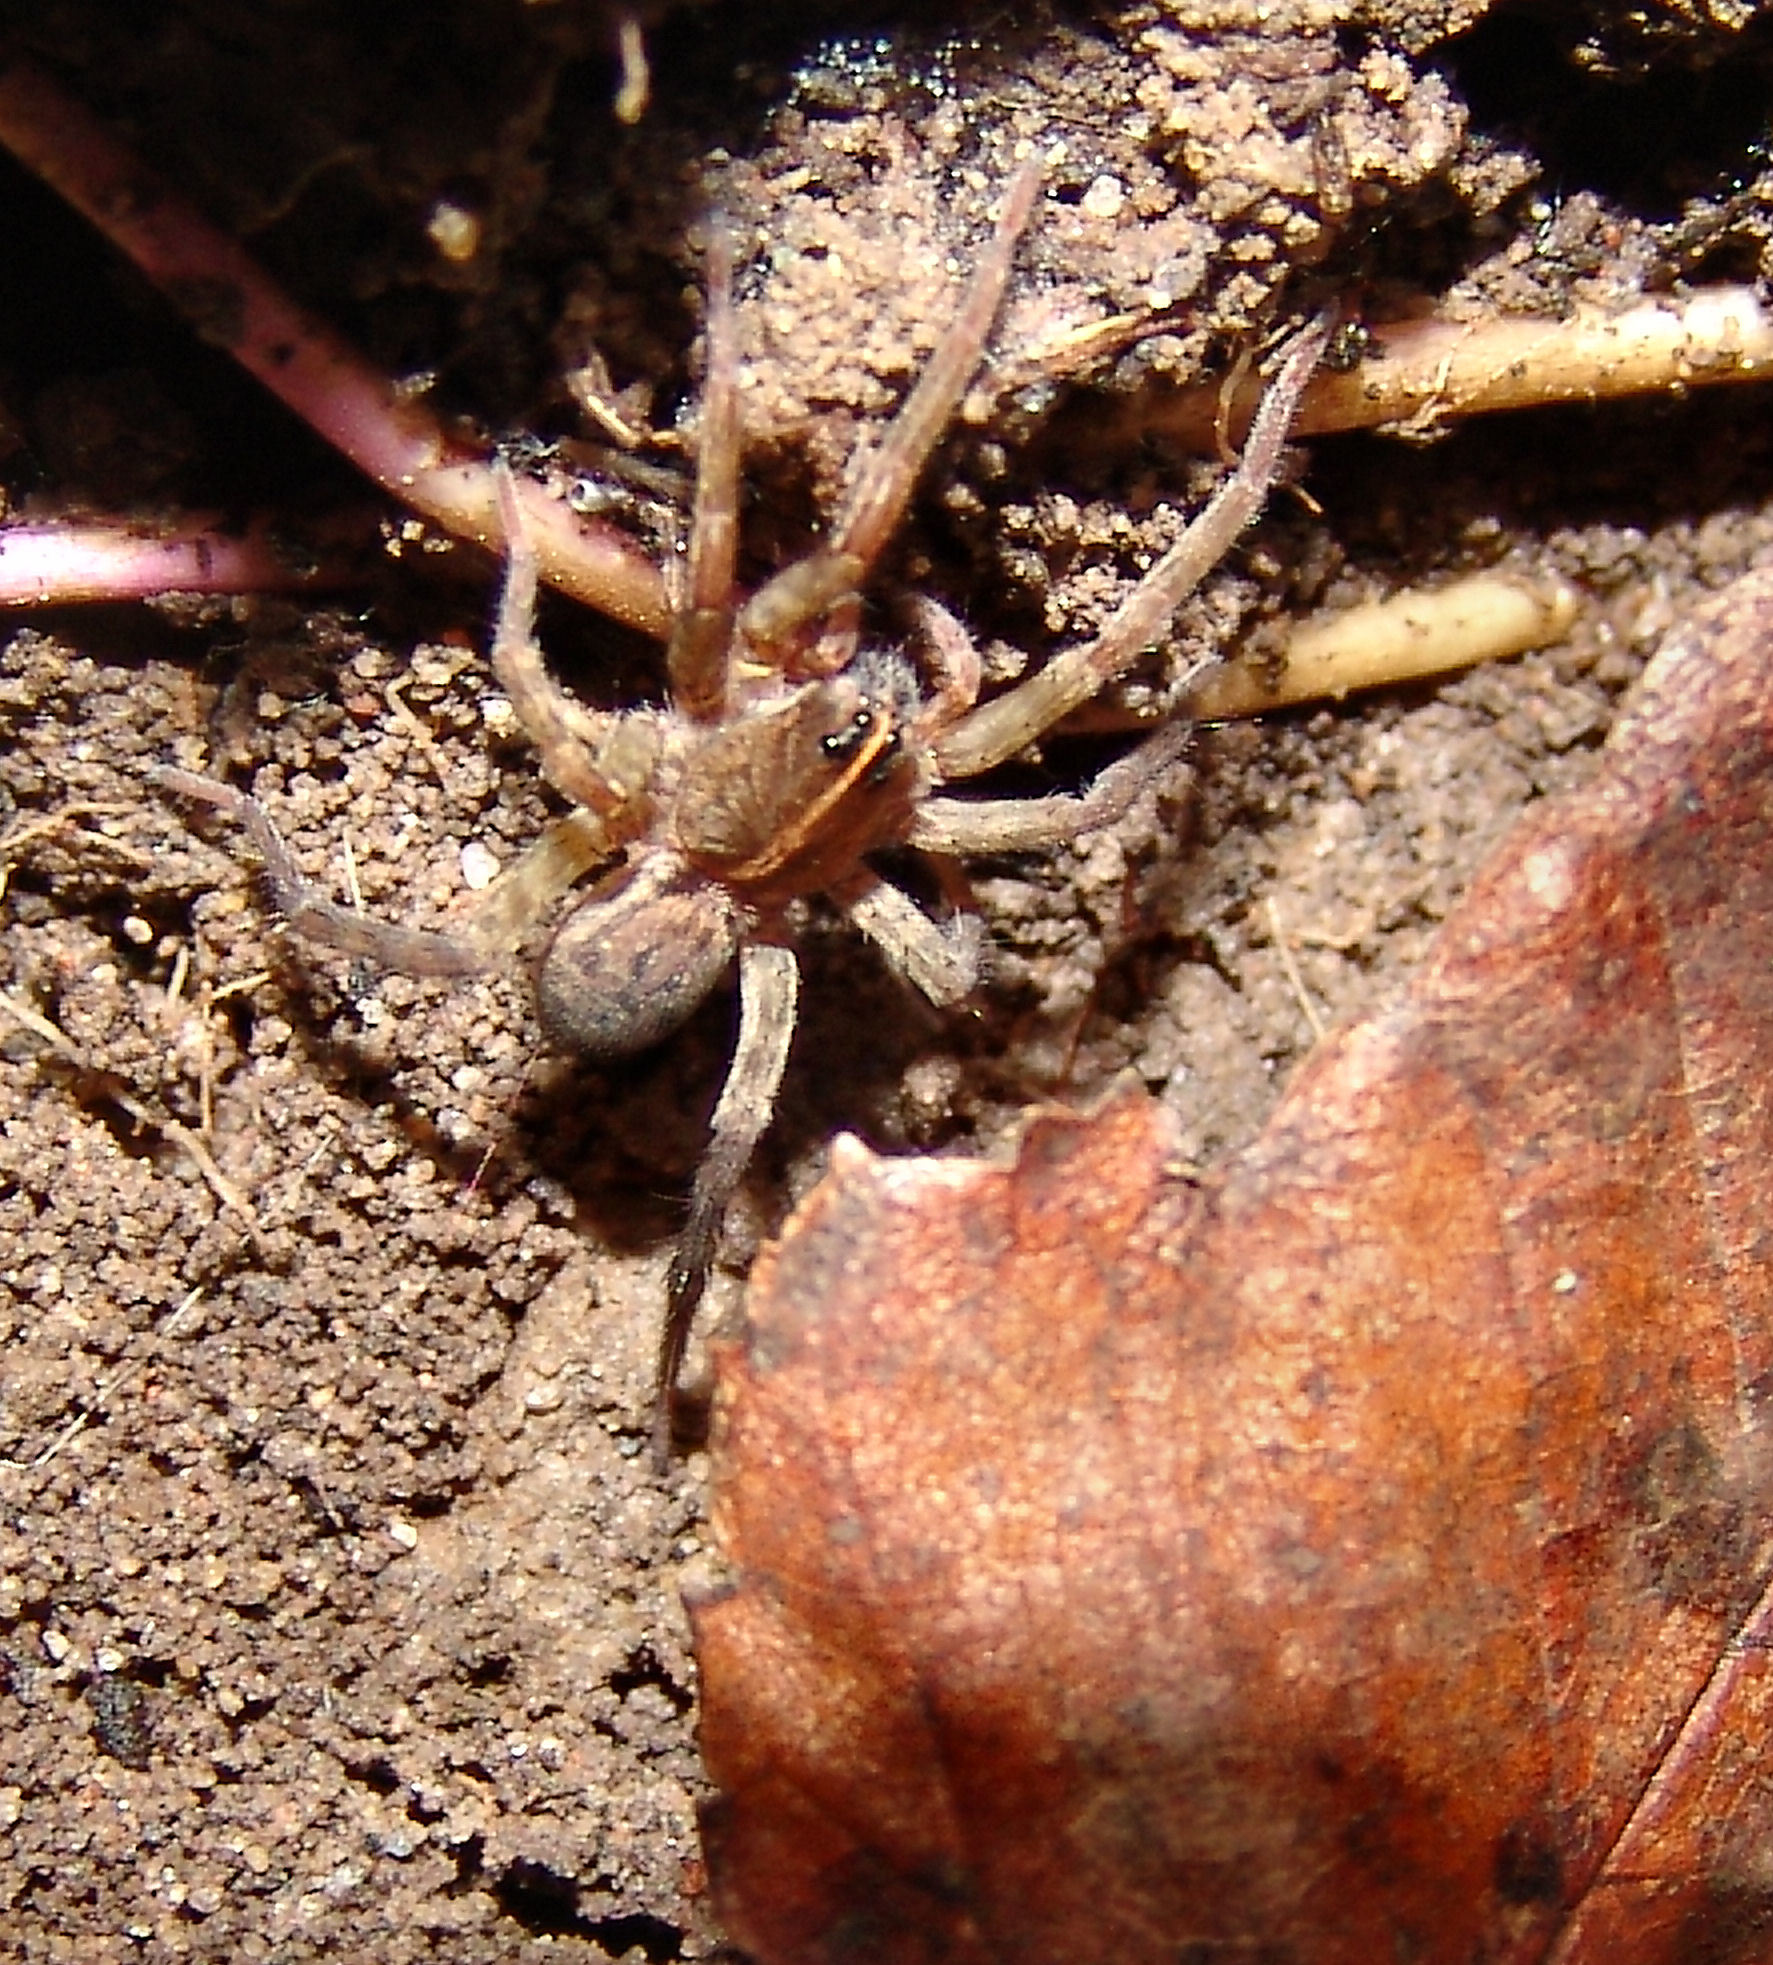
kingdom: Animalia
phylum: Arthropoda
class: Arachnida
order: Araneae
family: Lycosidae
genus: Tigrosa
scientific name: Tigrosa helluo
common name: Wetland giant wolf spider
